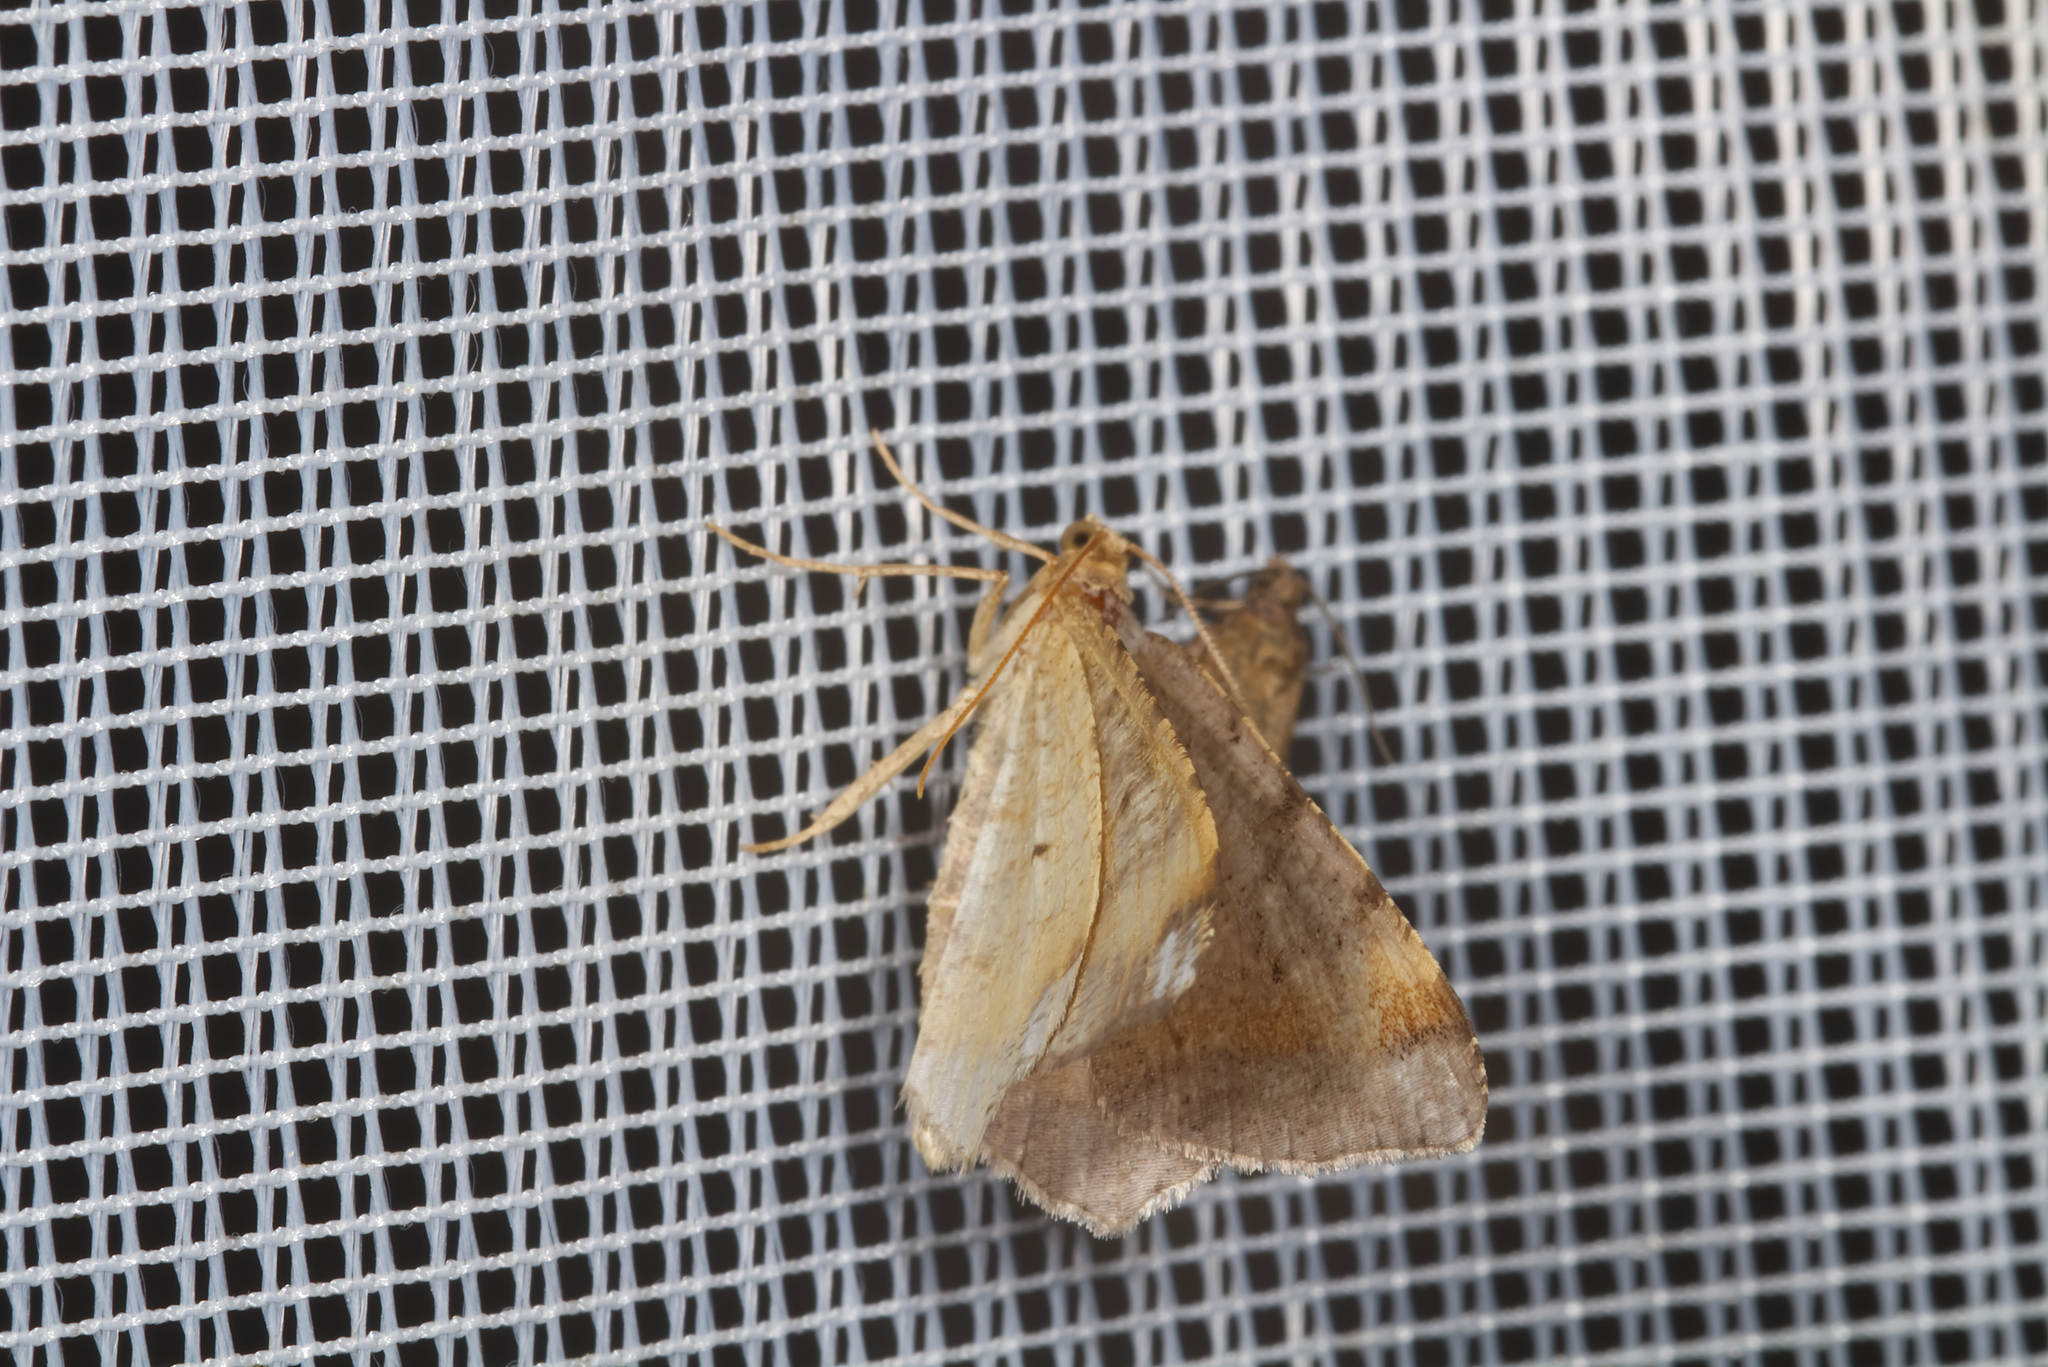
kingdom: Animalia
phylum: Arthropoda
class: Insecta
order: Lepidoptera
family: Geometridae
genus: Macaria
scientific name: Macaria liturata
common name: Tawny-barred angle
